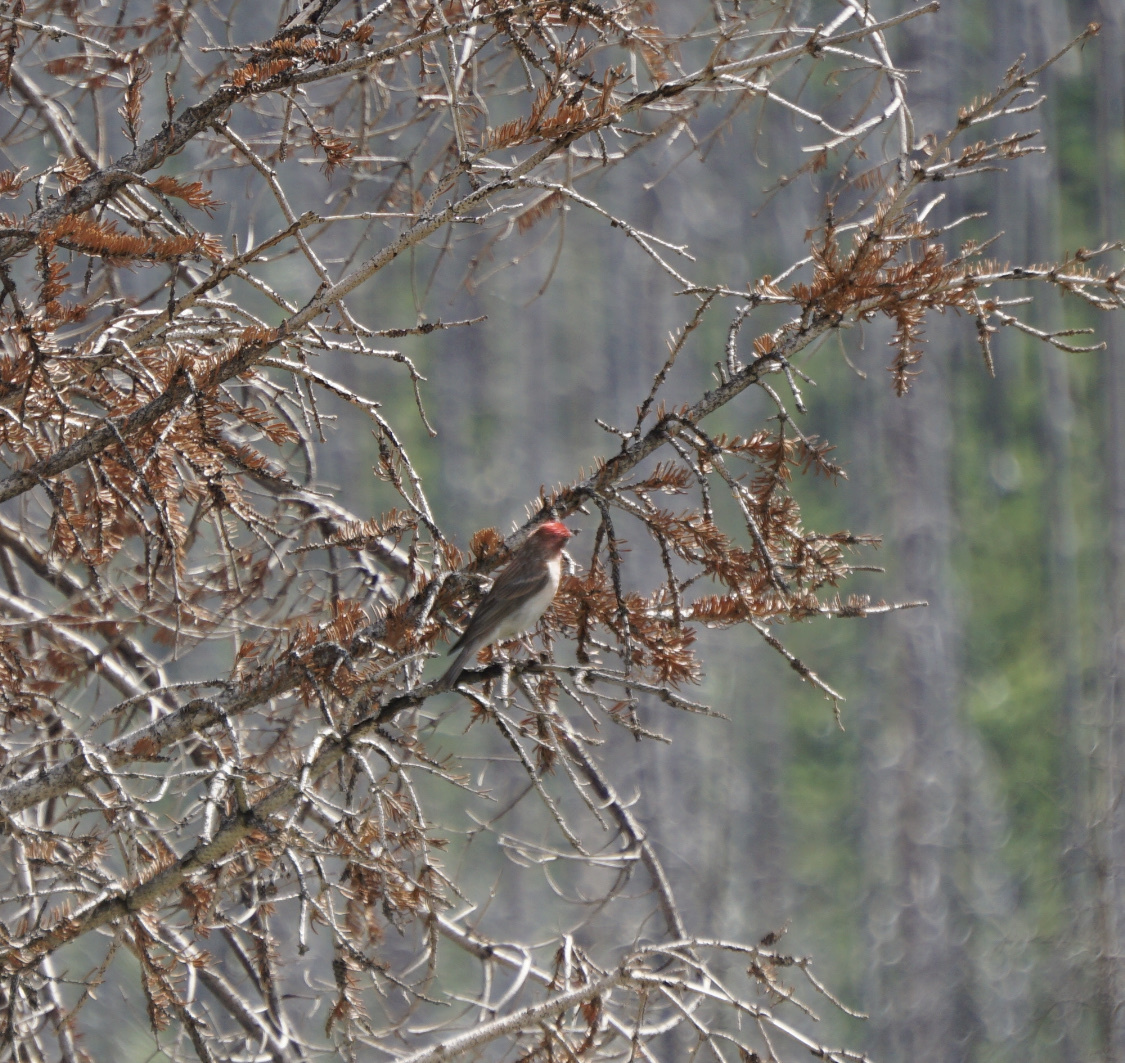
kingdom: Animalia
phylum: Chordata
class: Aves
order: Passeriformes
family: Fringillidae
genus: Haemorhous
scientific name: Haemorhous cassinii
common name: Cassin's finch
